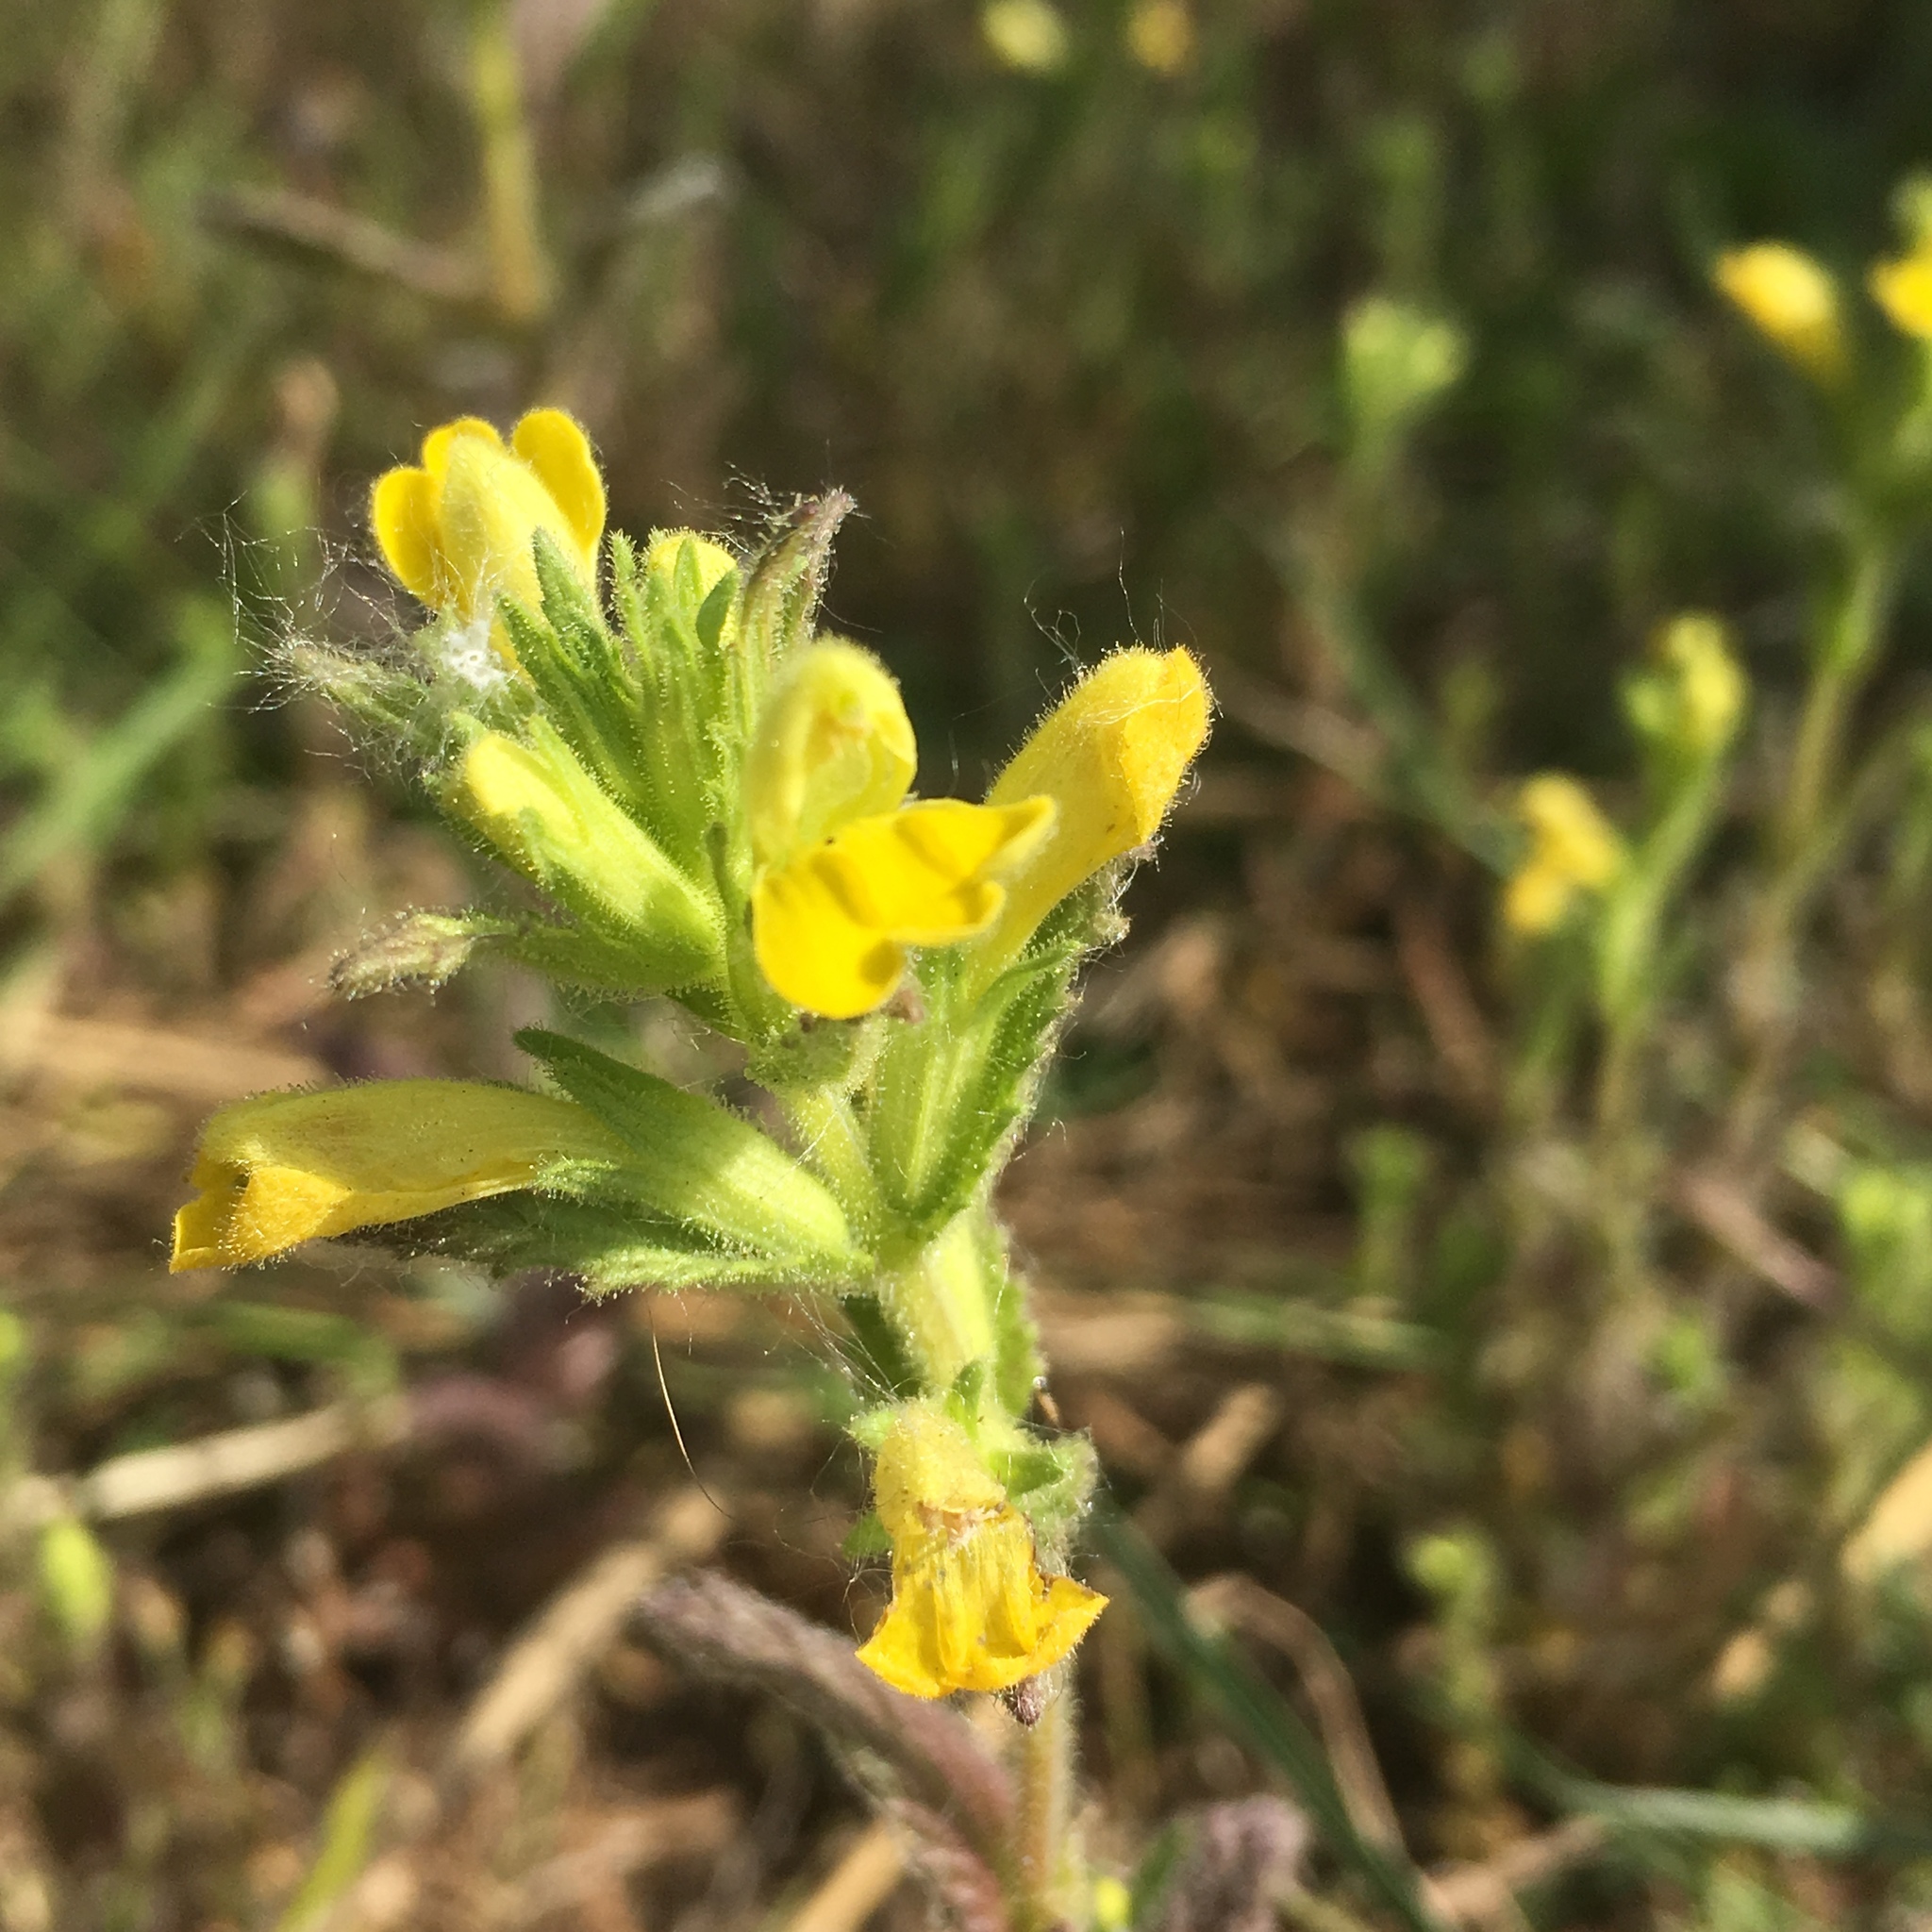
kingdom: Plantae
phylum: Tracheophyta
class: Magnoliopsida
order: Lamiales
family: Orobanchaceae
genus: Bellardia
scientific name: Bellardia viscosa
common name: Sticky parentucellia
